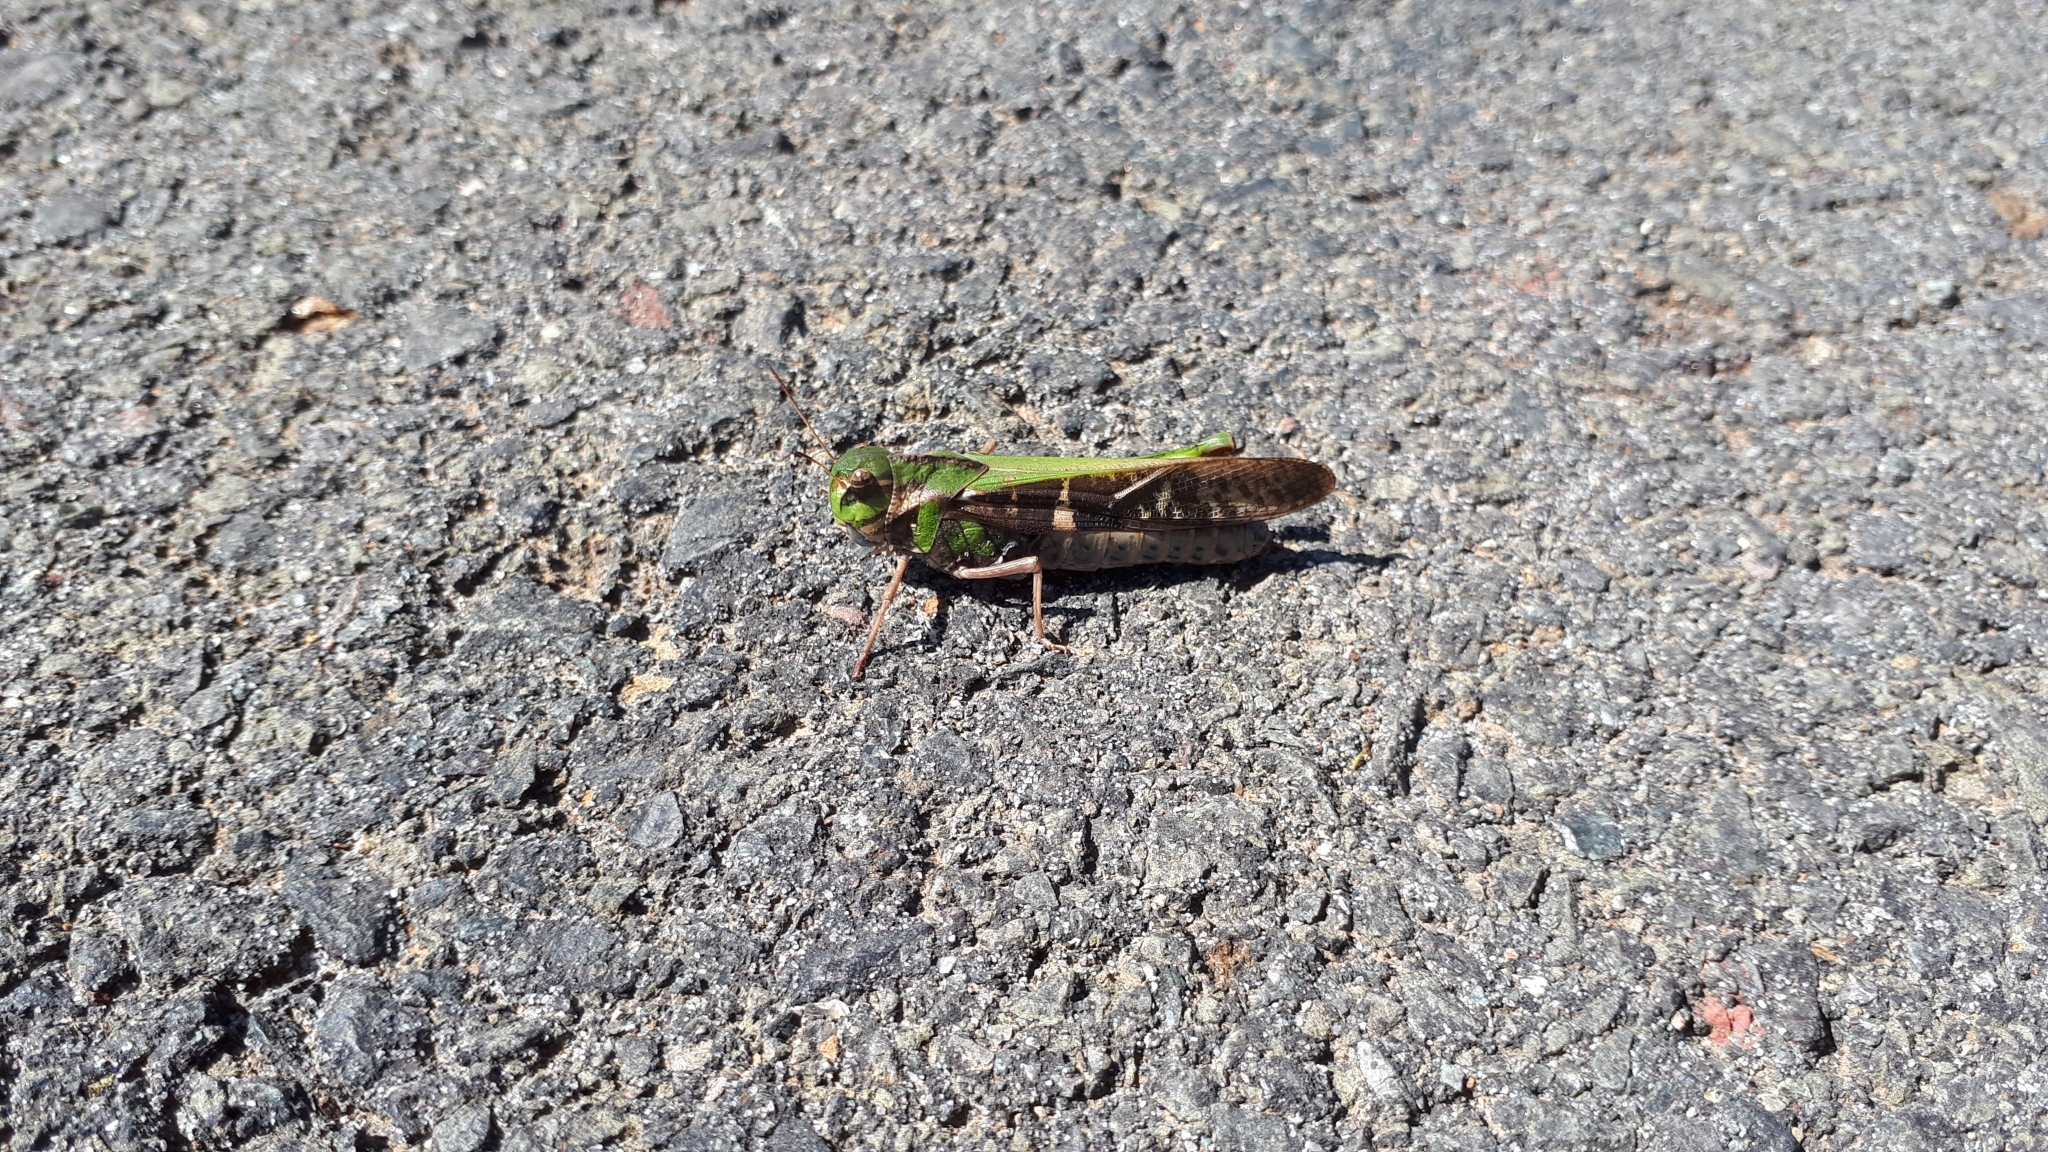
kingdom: Animalia
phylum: Arthropoda
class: Insecta
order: Orthoptera
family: Acrididae
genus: Gastrimargus
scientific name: Gastrimargus musicus
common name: Yellow-winged locust
